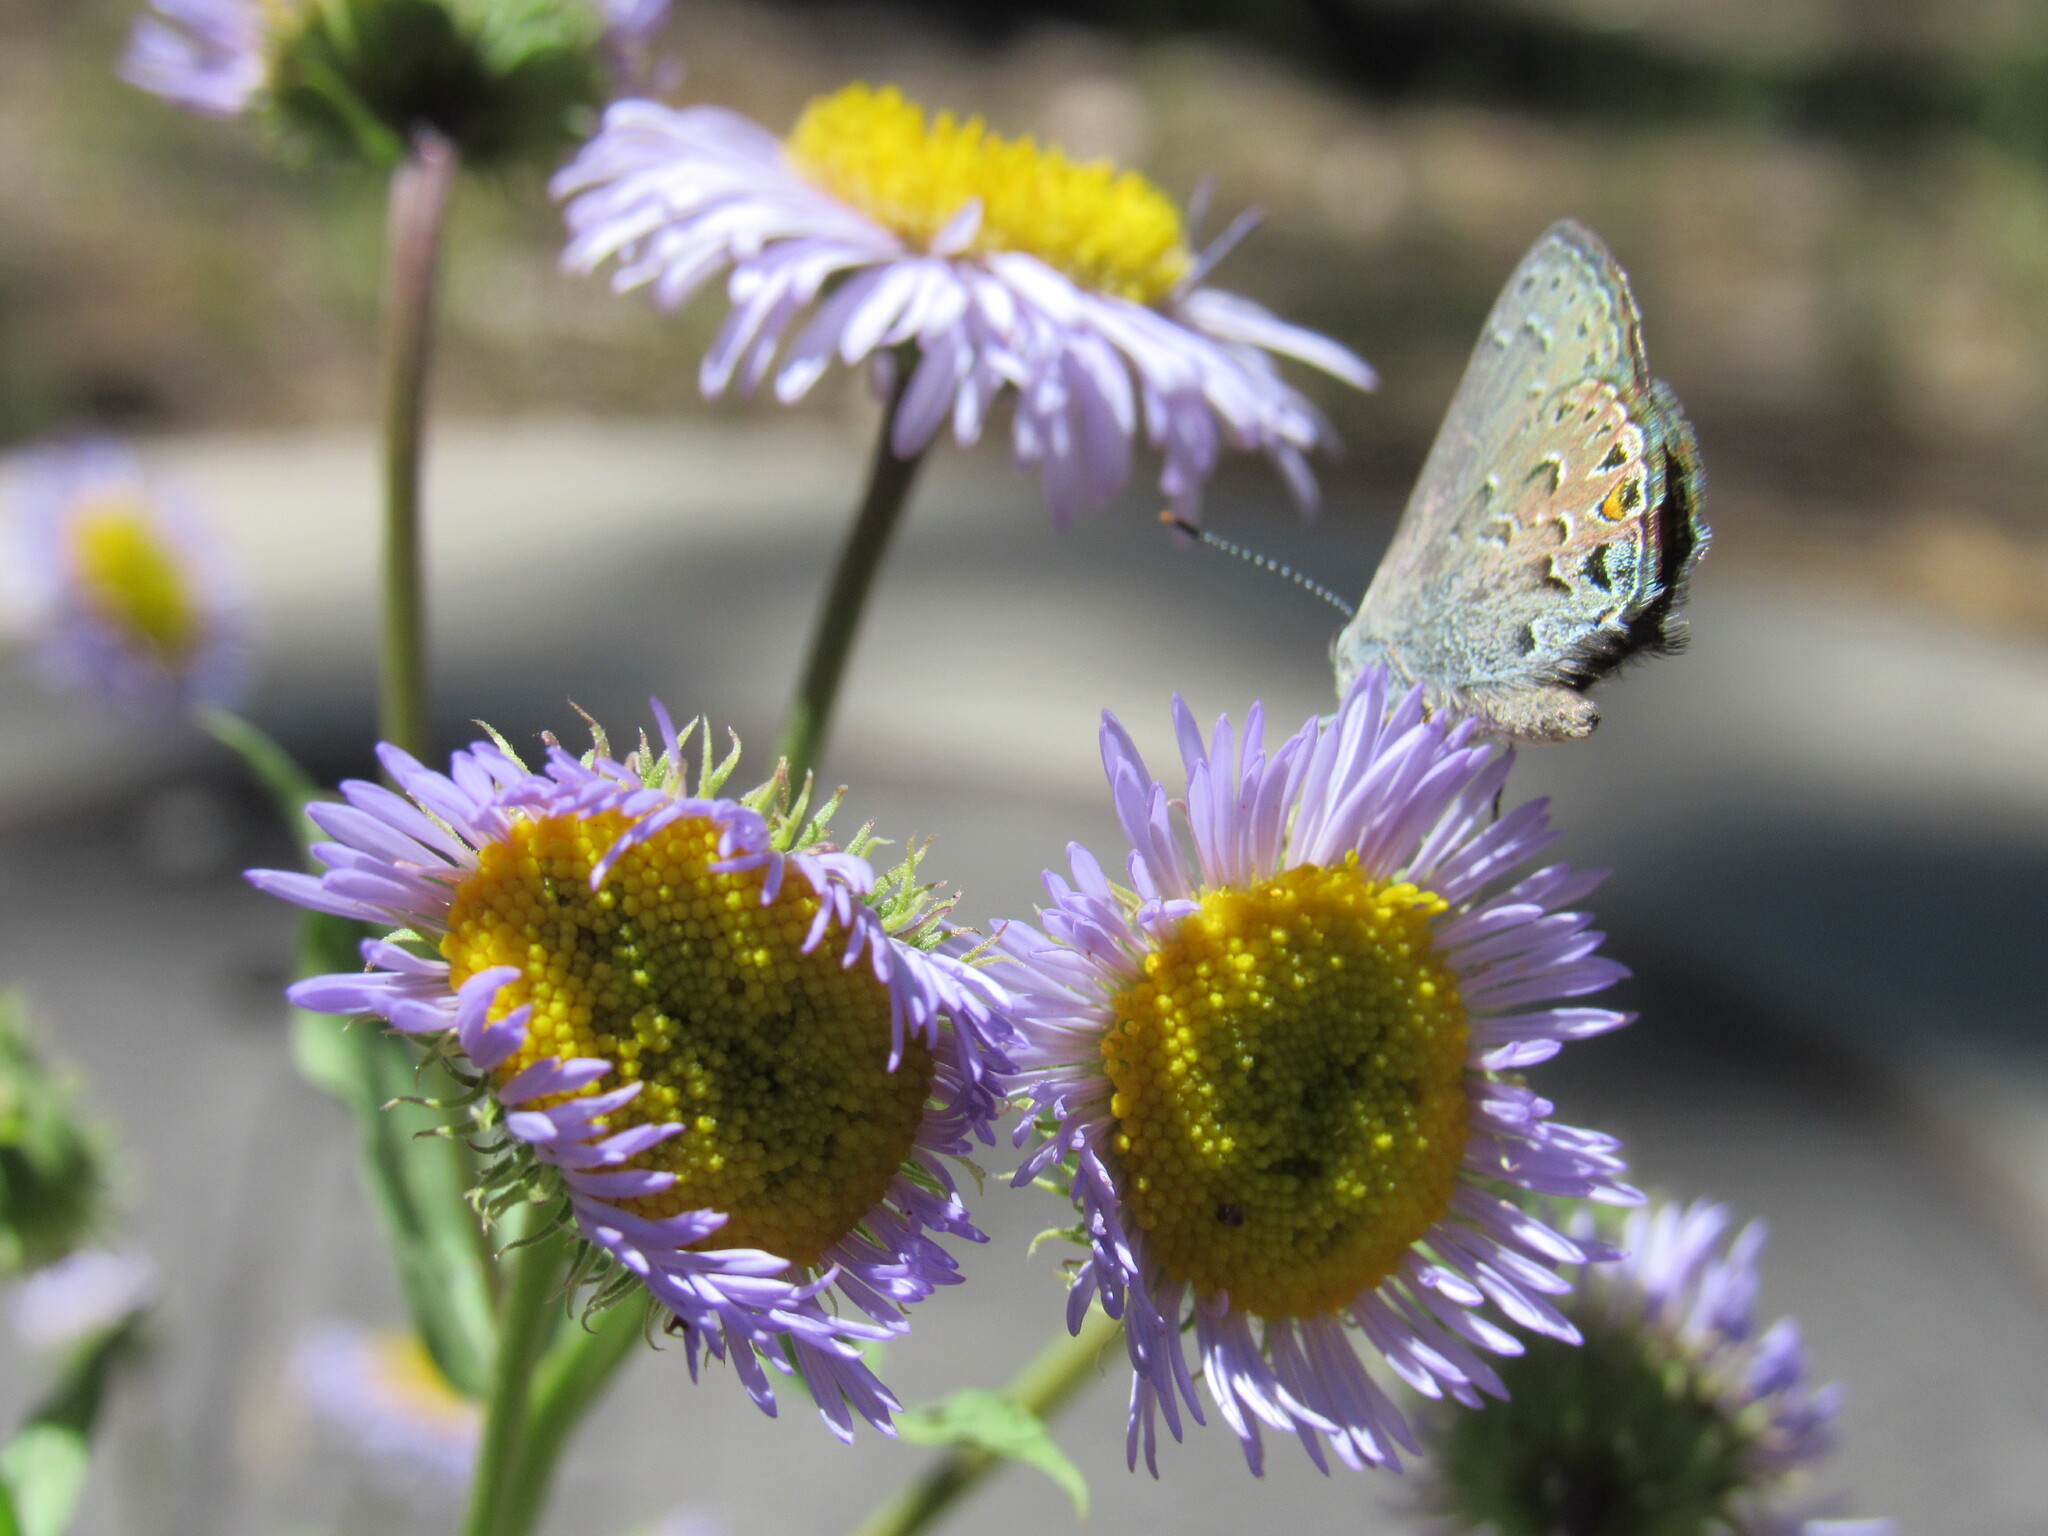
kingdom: Animalia
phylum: Arthropoda
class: Insecta
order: Lepidoptera
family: Lycaenidae
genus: Satyrium
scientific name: Satyrium behrii
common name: Behr's hairstreak
